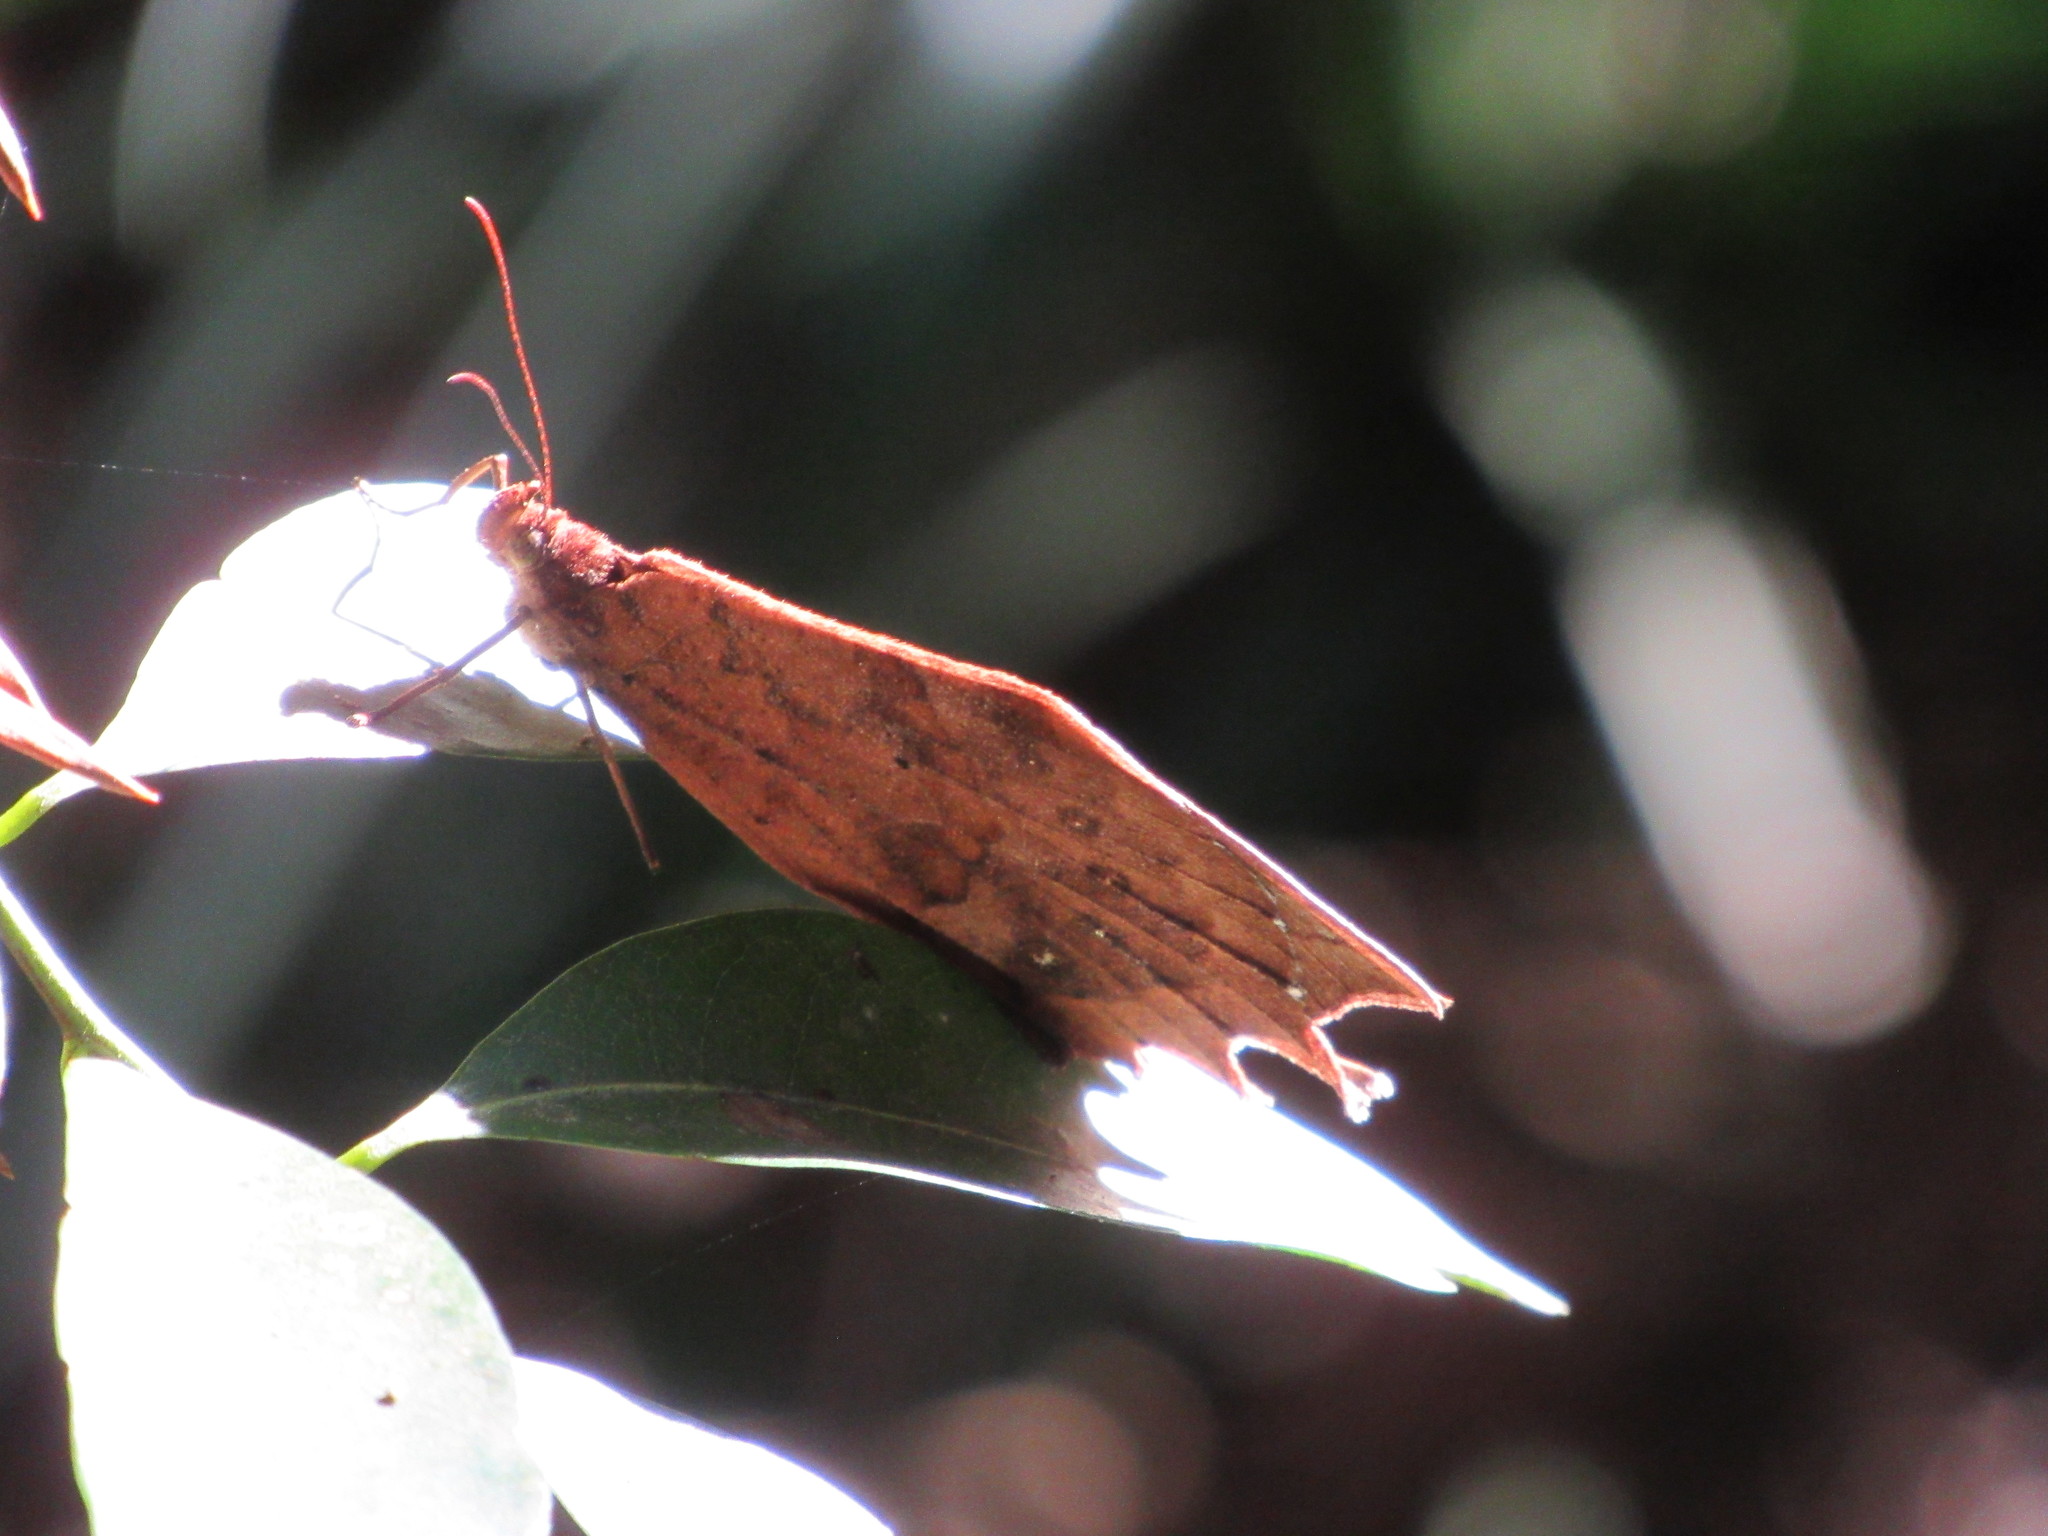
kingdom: Animalia
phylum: Arthropoda
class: Insecta
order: Lepidoptera
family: Nymphalidae
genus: Taguaiba
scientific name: Taguaiba
